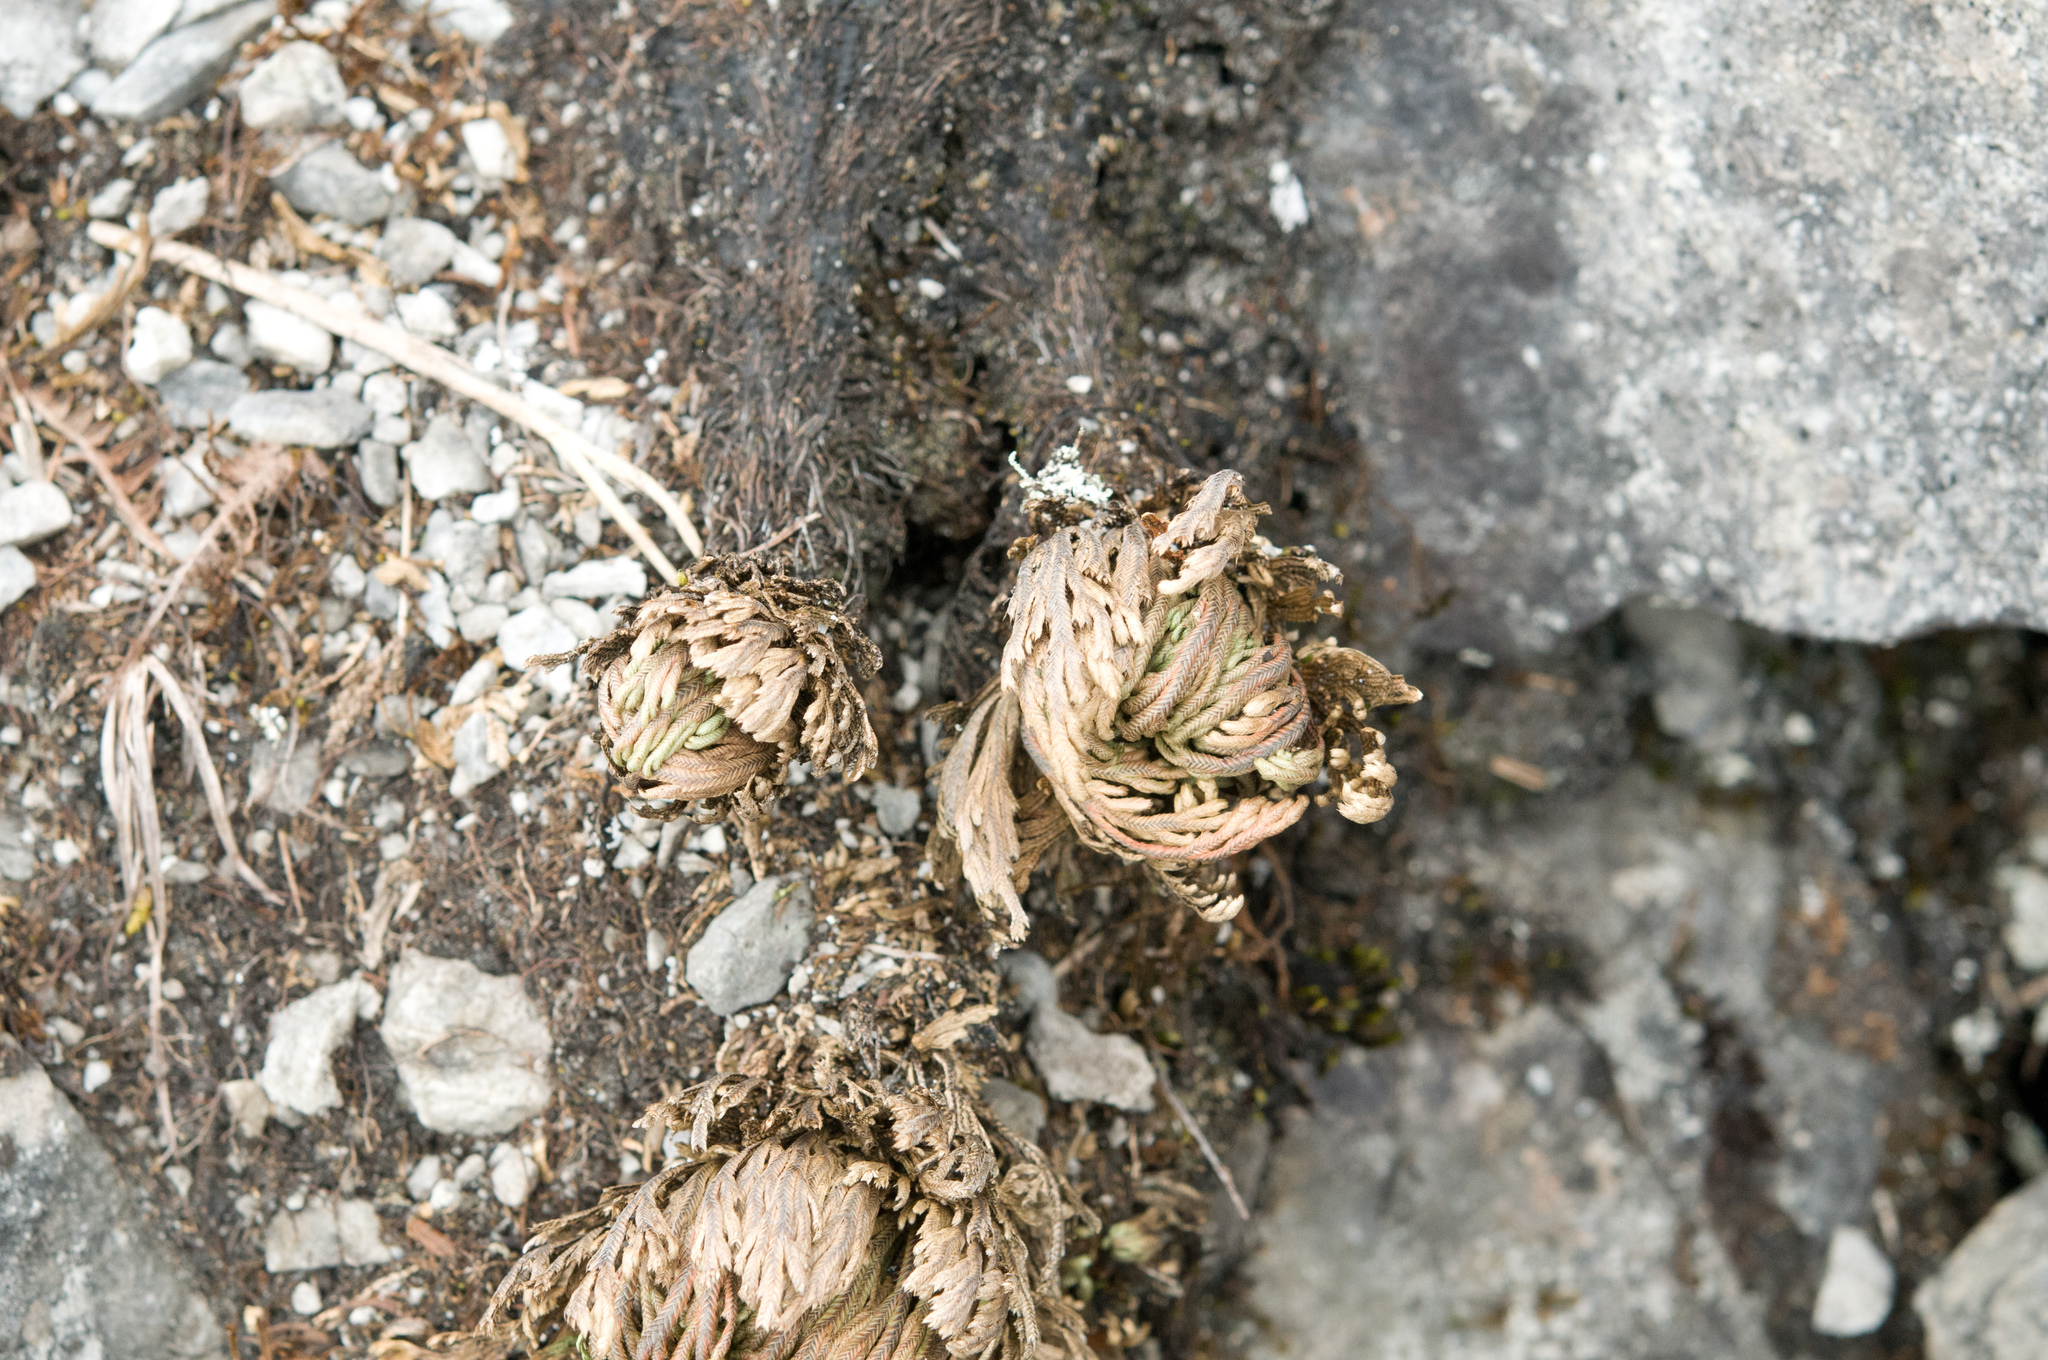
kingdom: Plantae
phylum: Tracheophyta
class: Lycopodiopsida
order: Selaginellales
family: Selaginellaceae
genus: Selaginella
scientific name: Selaginella tamariscina
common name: Little-club-moss
